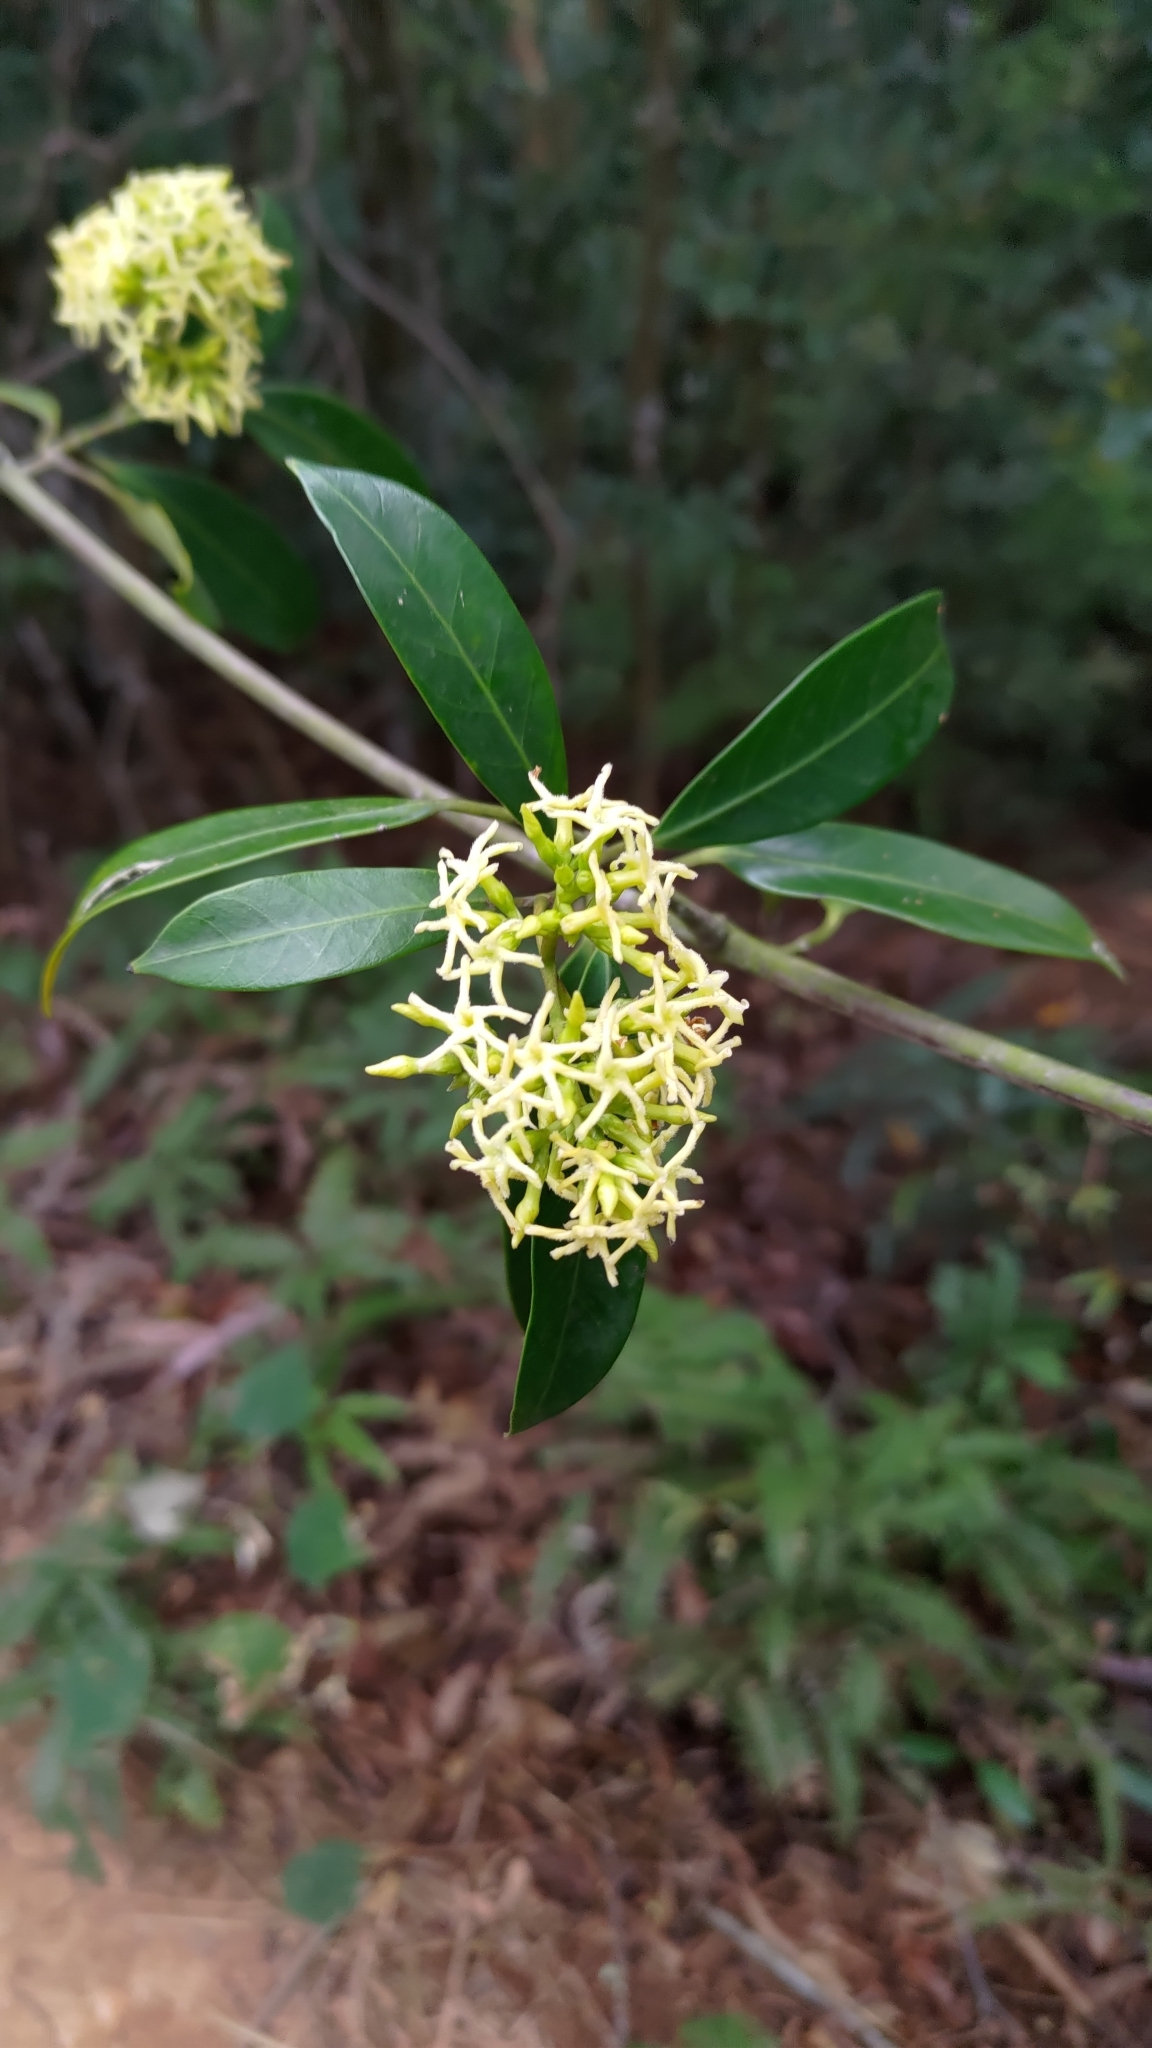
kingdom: Plantae
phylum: Tracheophyta
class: Magnoliopsida
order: Gentianales
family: Apocynaceae
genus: Anodendron
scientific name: Anodendron affine
